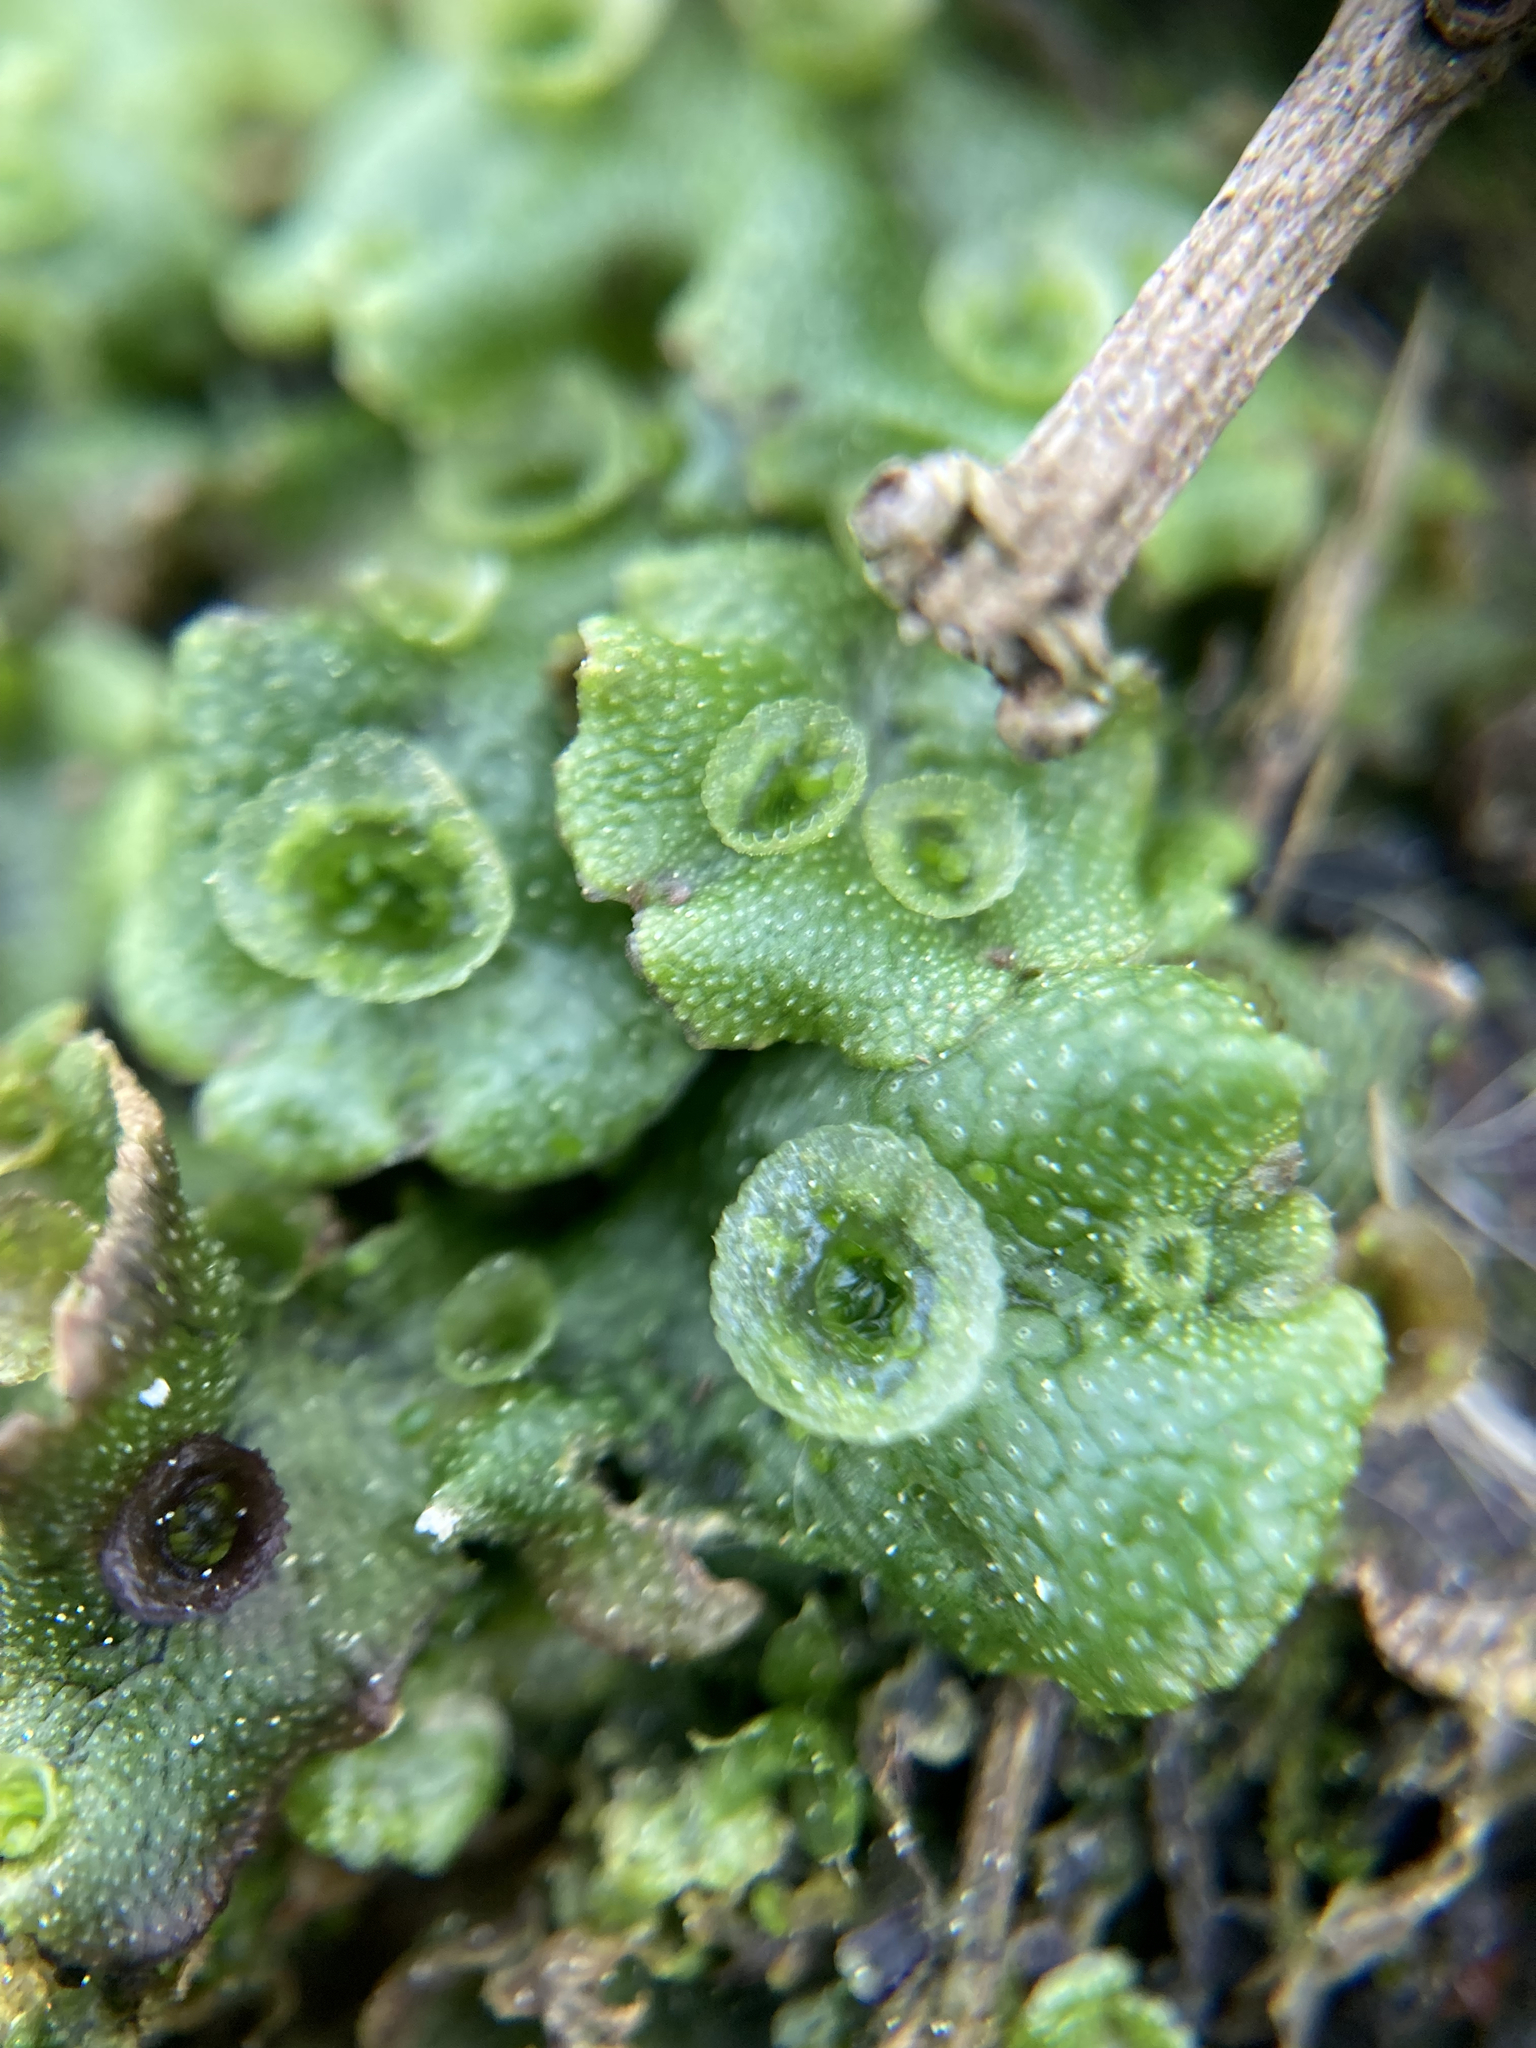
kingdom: Plantae
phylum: Marchantiophyta
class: Marchantiopsida
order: Marchantiales
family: Marchantiaceae
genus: Marchantia
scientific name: Marchantia polymorpha
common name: Common liverwort
